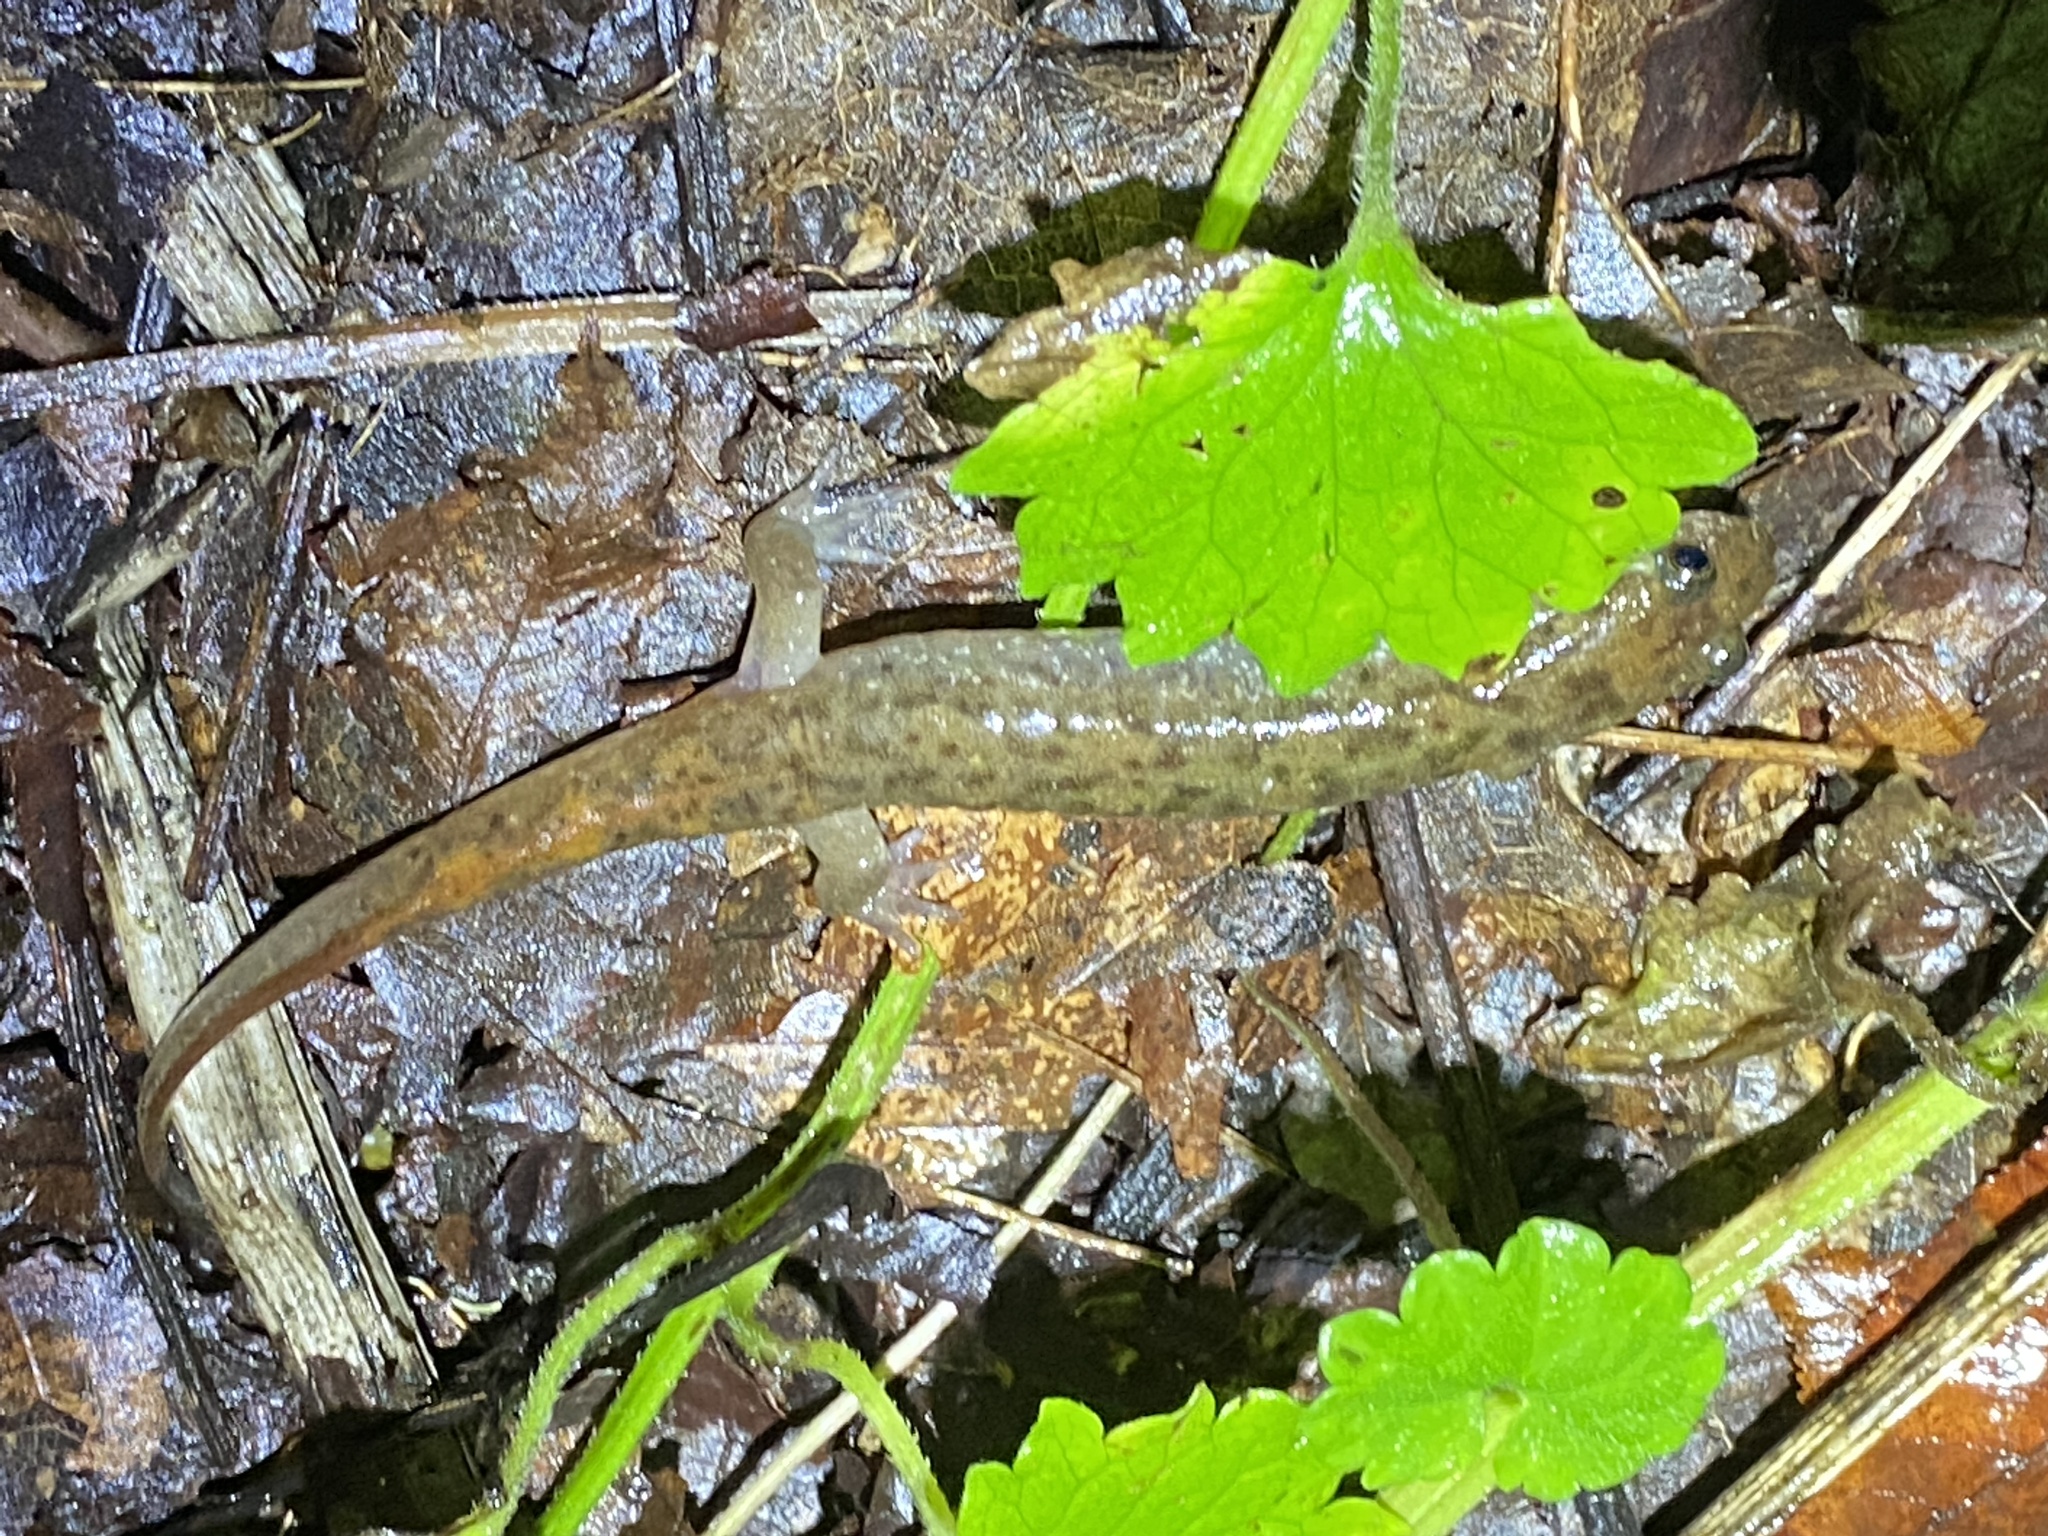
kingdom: Animalia
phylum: Chordata
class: Amphibia
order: Caudata
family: Plethodontidae
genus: Desmognathus
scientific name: Desmognathus monticola
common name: Seal salamander
